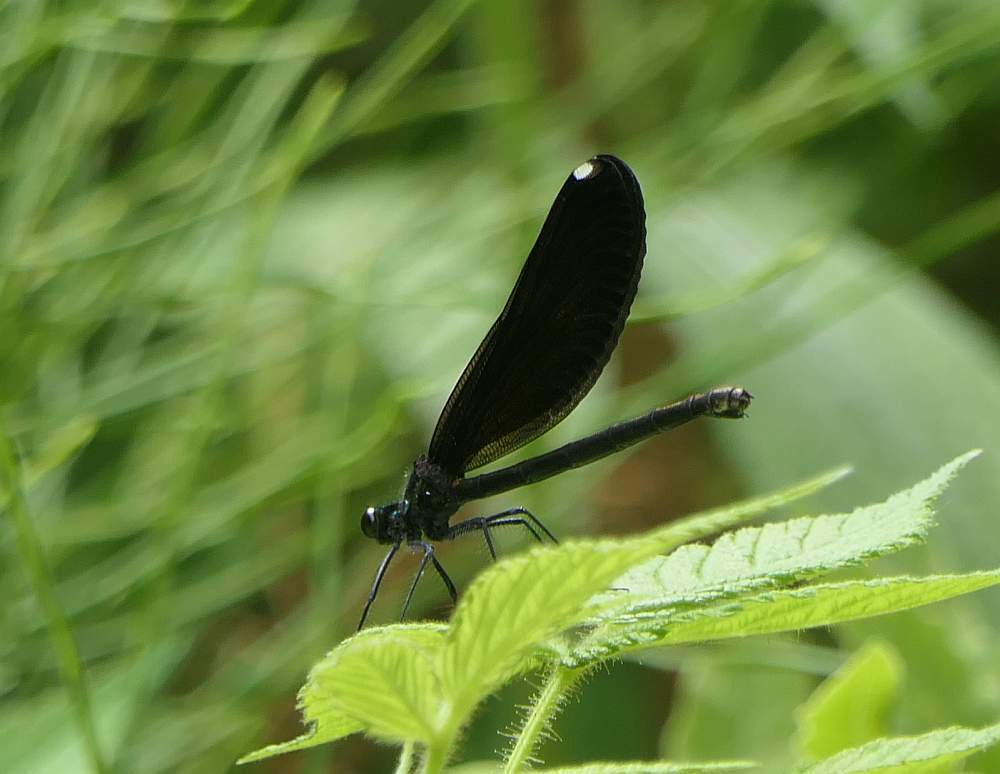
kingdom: Animalia
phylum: Arthropoda
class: Insecta
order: Odonata
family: Calopterygidae
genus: Calopteryx
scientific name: Calopteryx maculata
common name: Ebony jewelwing
